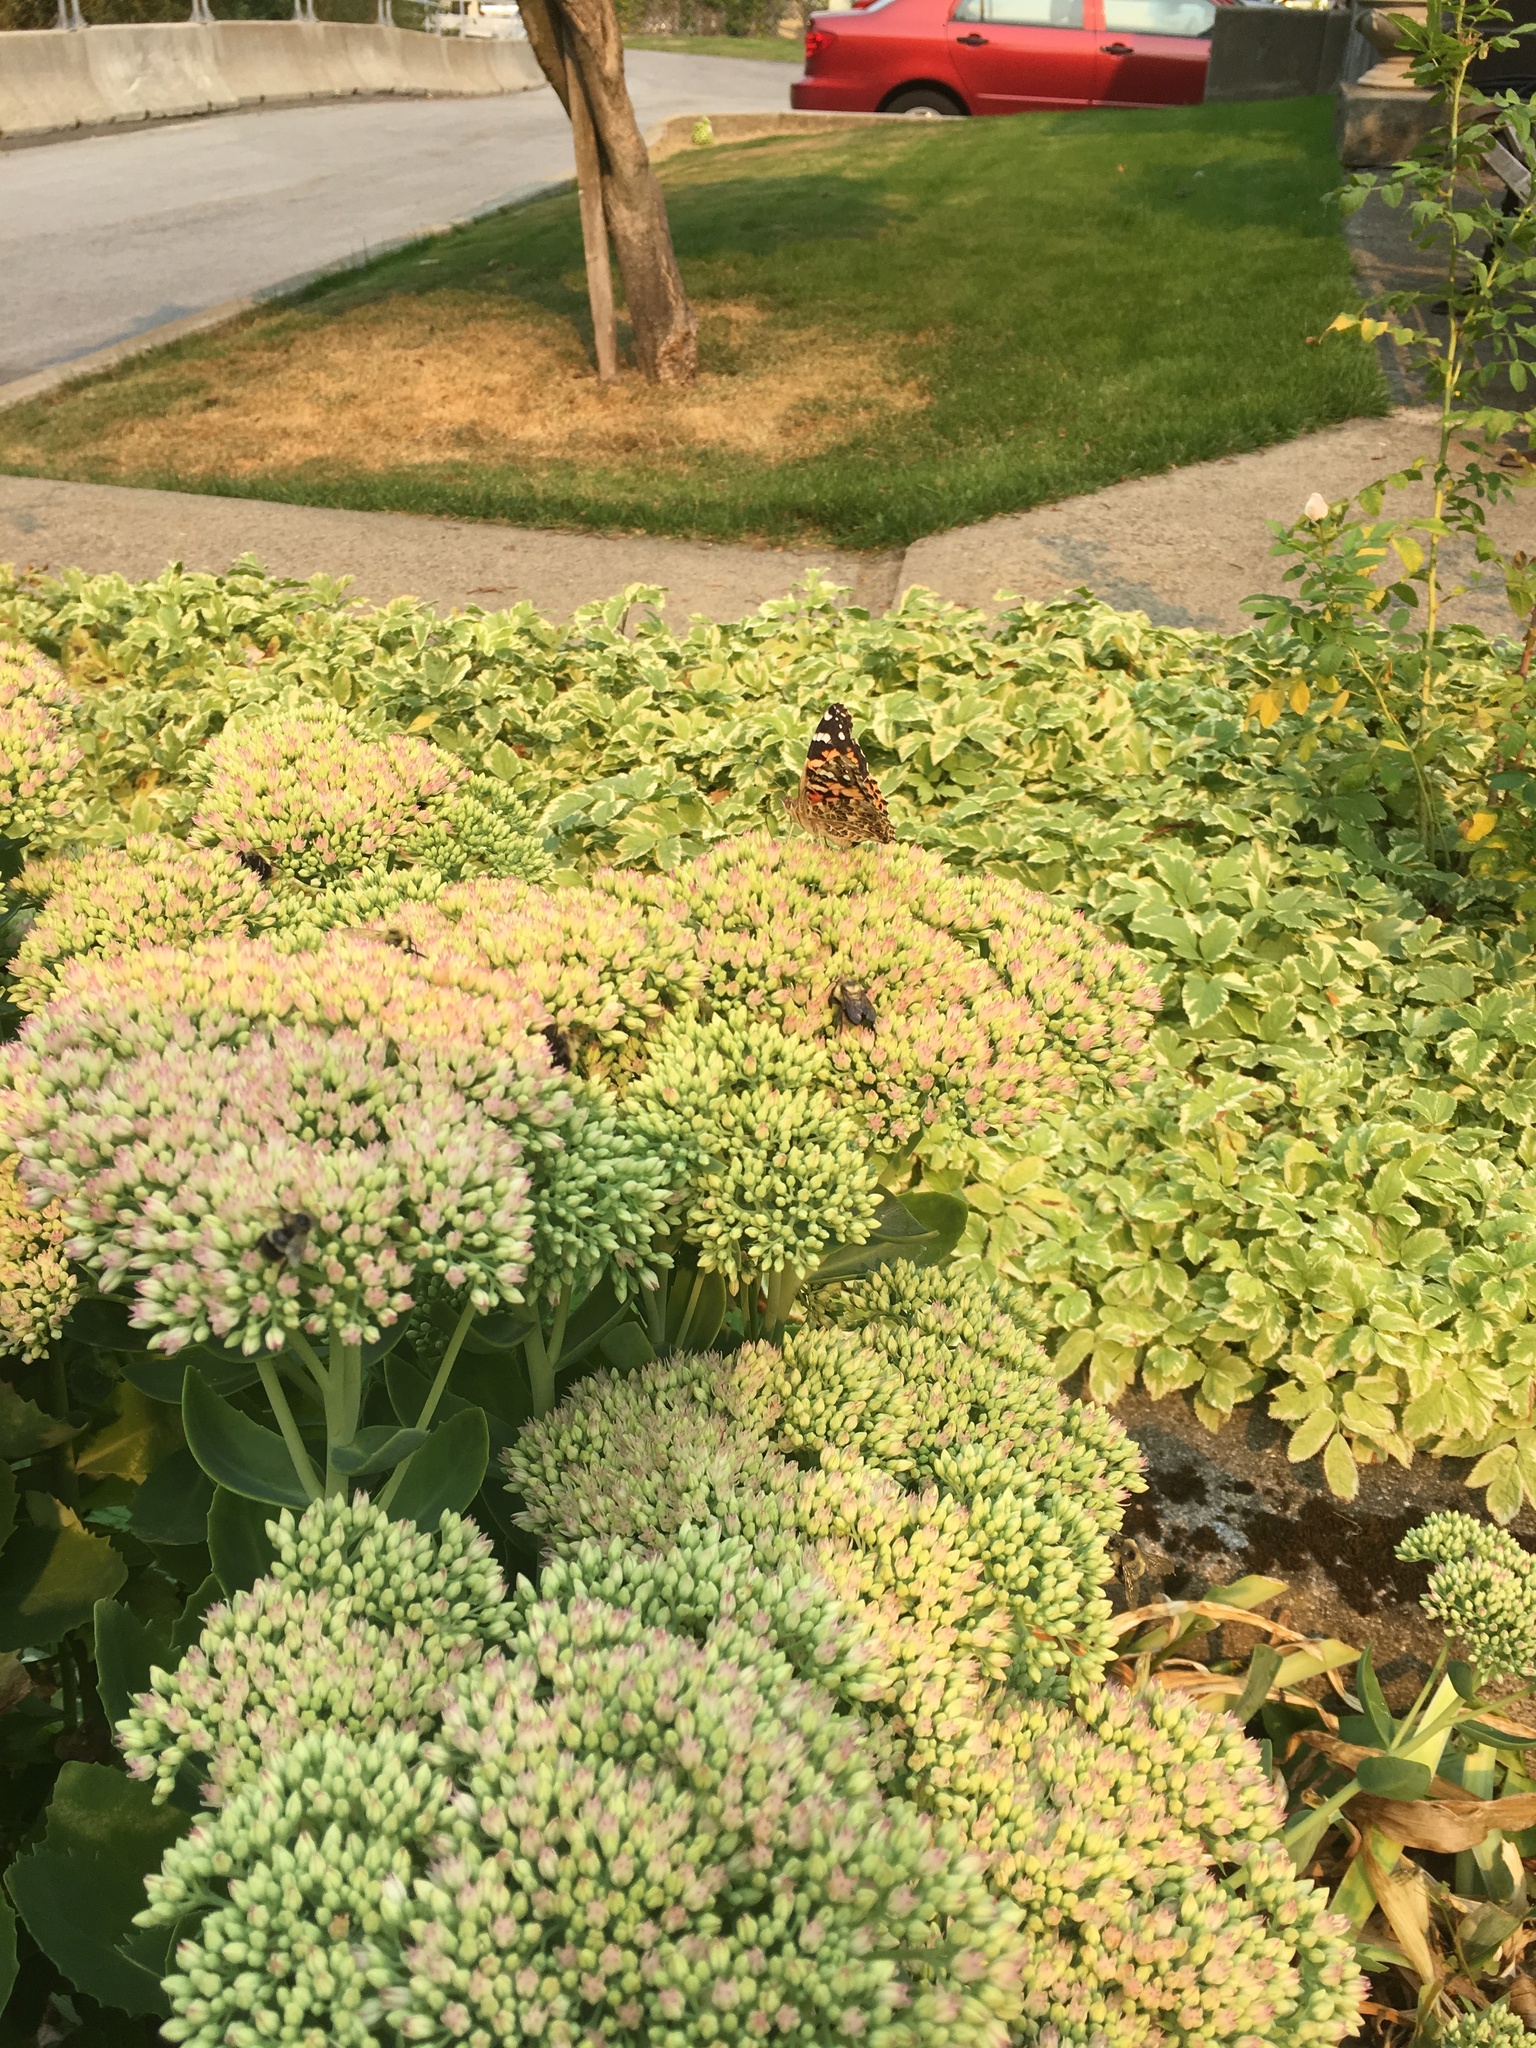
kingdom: Animalia
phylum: Arthropoda
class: Insecta
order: Lepidoptera
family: Nymphalidae
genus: Vanessa
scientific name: Vanessa cardui
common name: Painted lady
